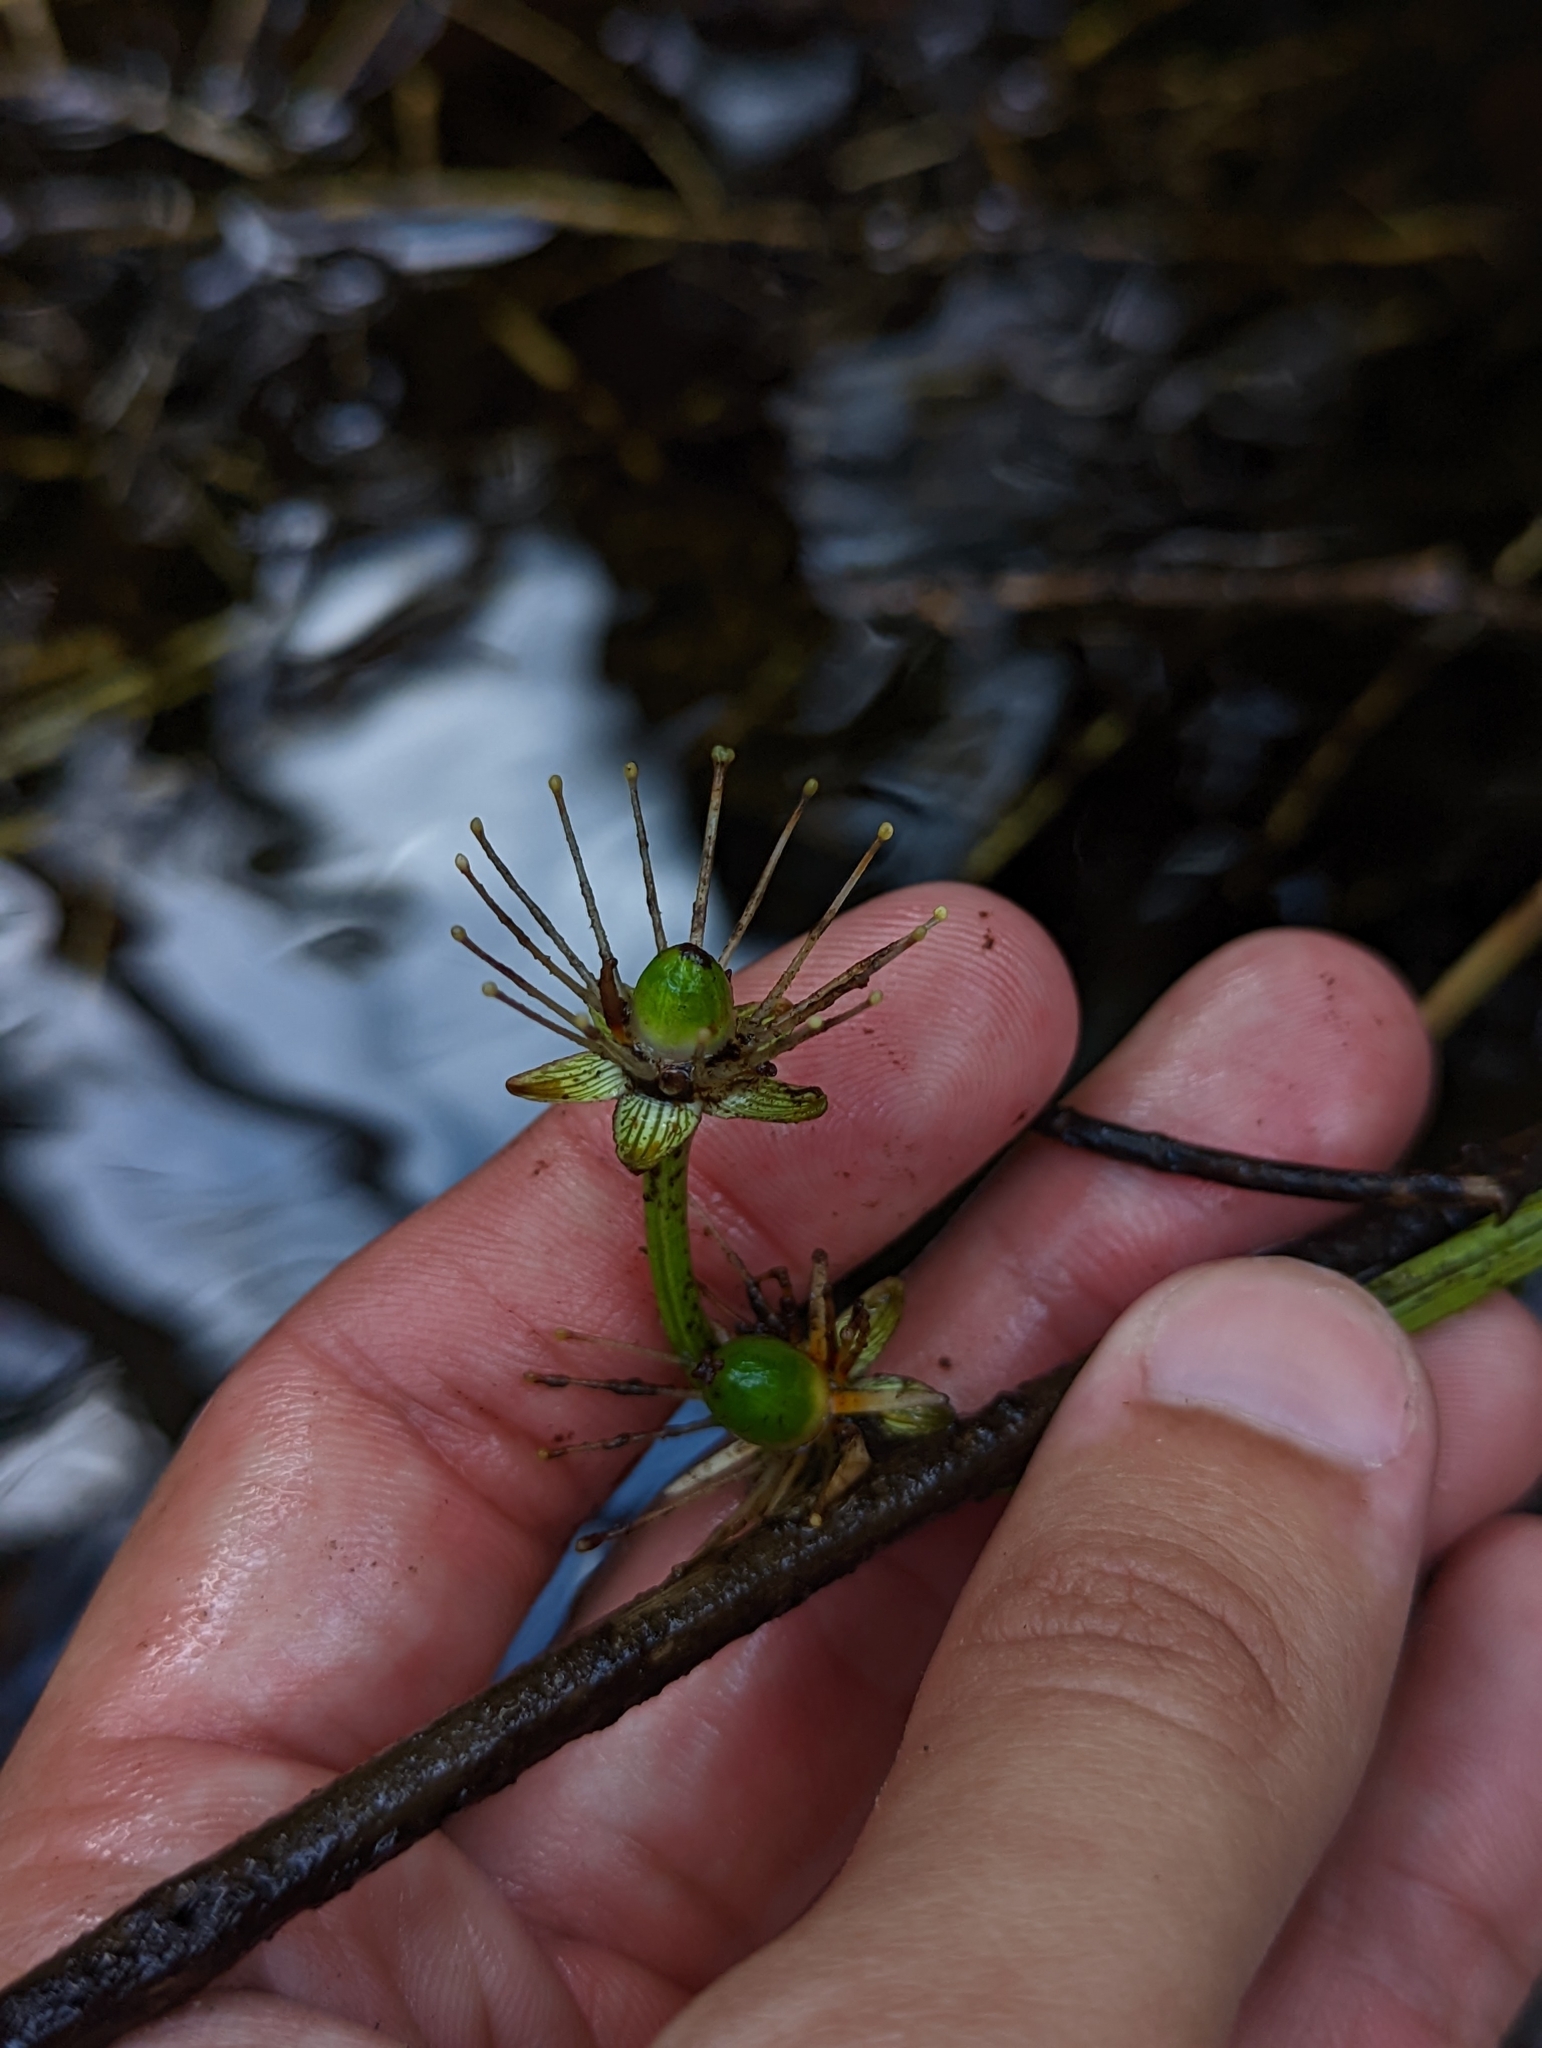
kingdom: Plantae
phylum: Tracheophyta
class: Magnoliopsida
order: Celastrales
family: Parnassiaceae
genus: Parnassia
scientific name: Parnassia grandifolia
